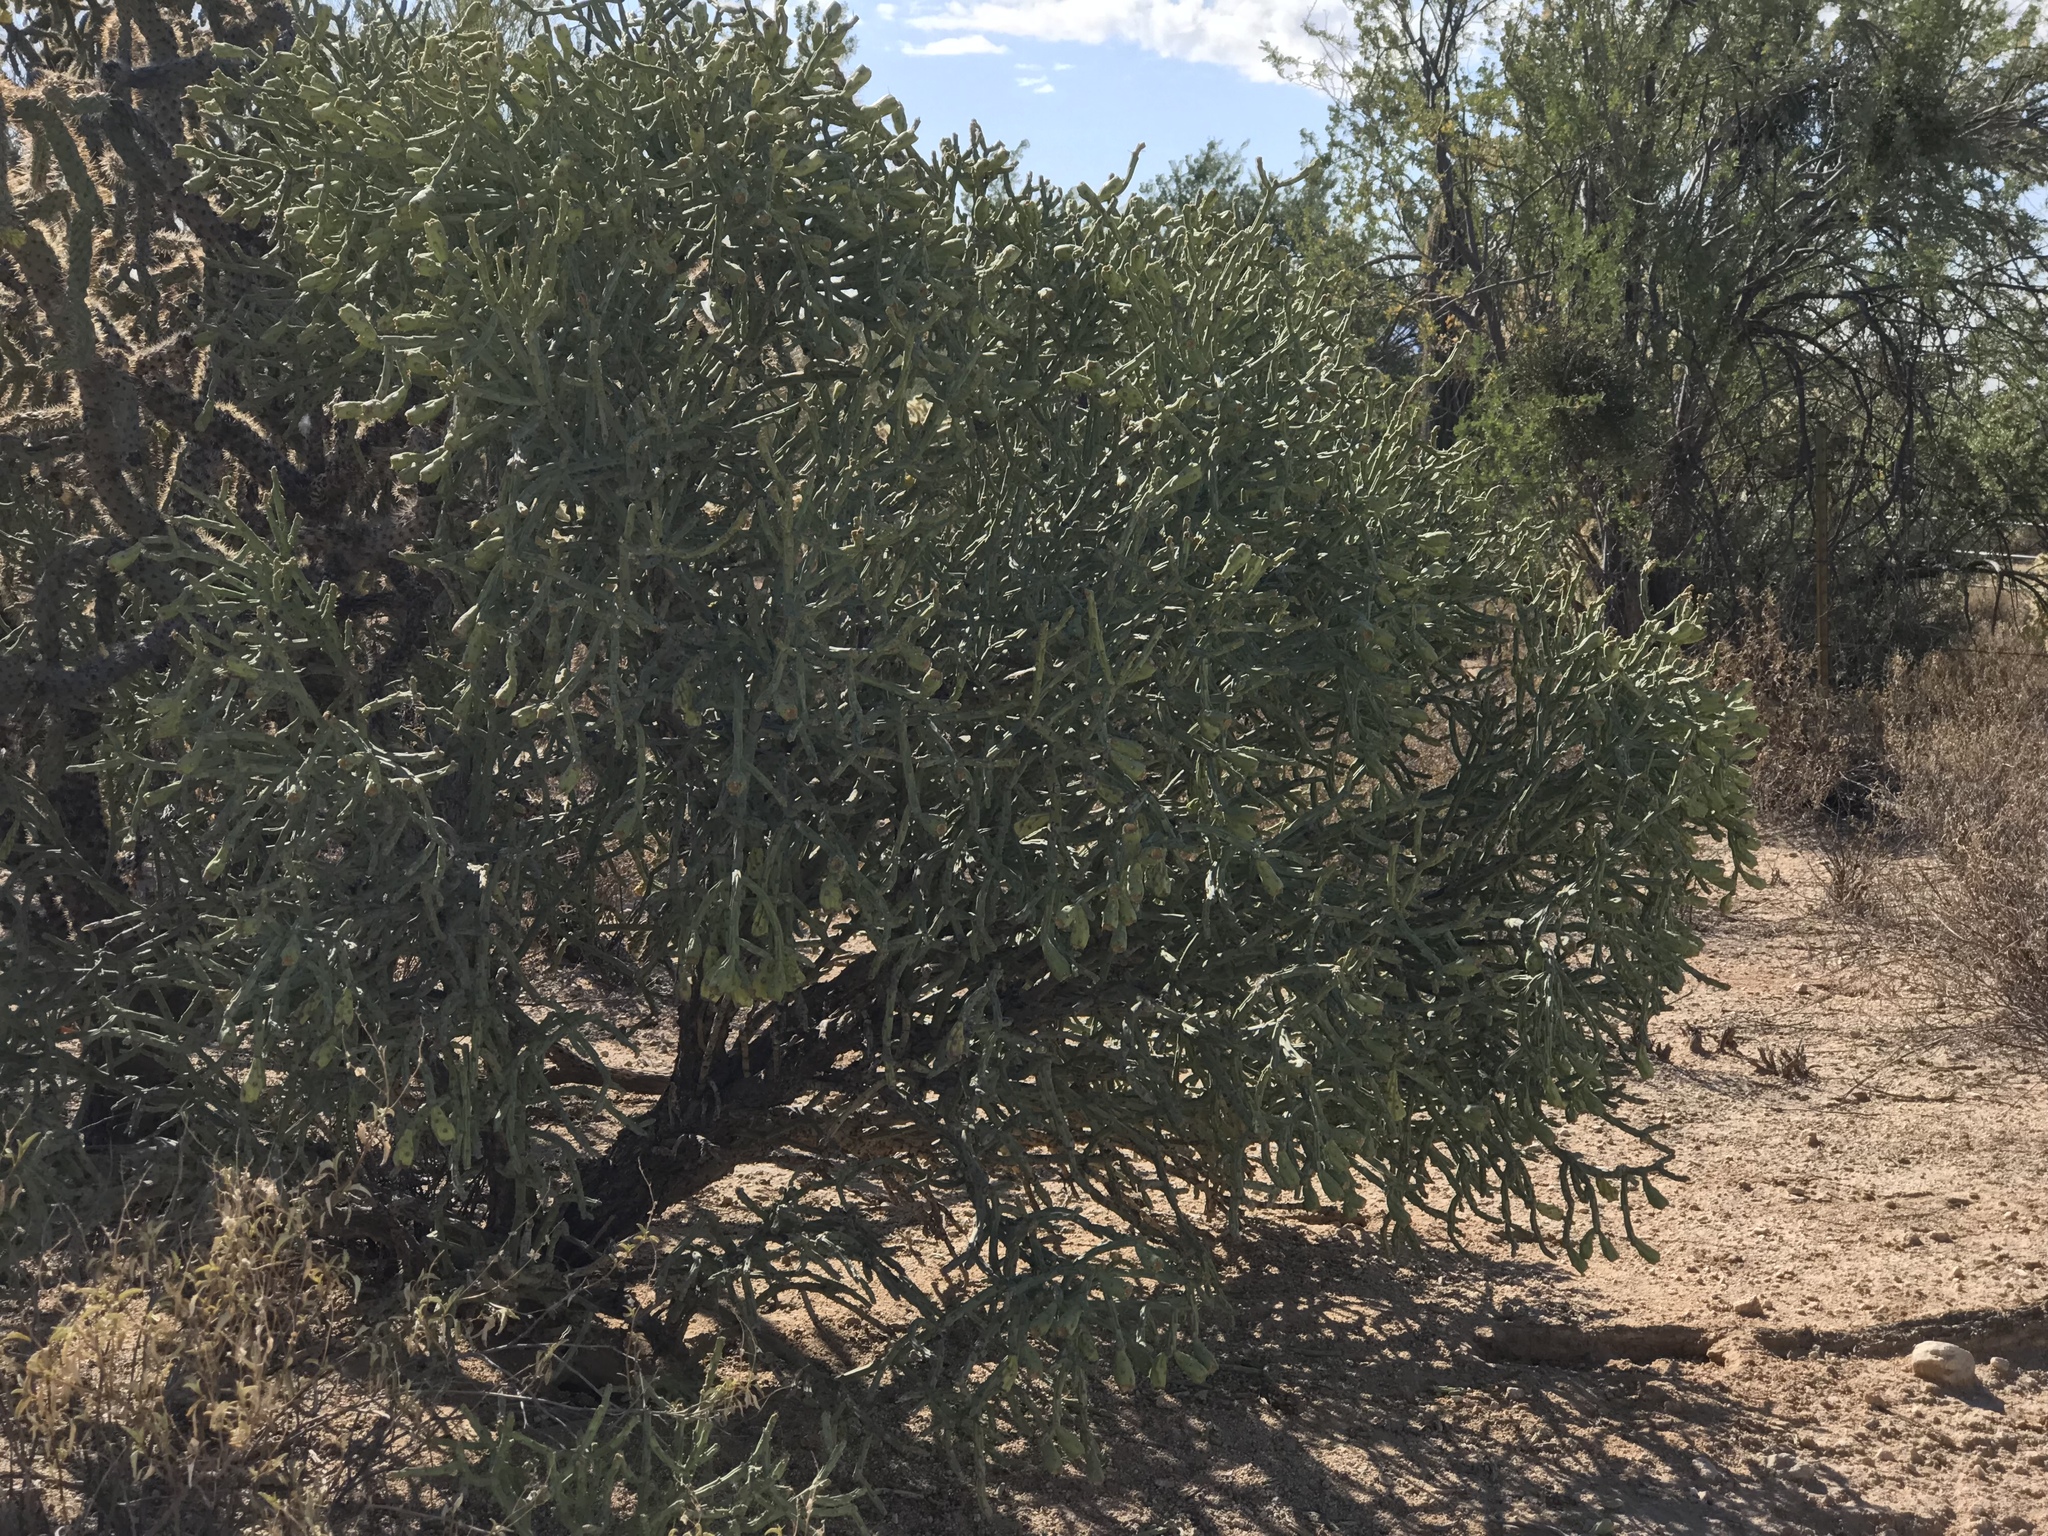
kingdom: Plantae
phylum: Tracheophyta
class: Magnoliopsida
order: Caryophyllales
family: Cactaceae
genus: Cylindropuntia
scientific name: Cylindropuntia arbuscula
